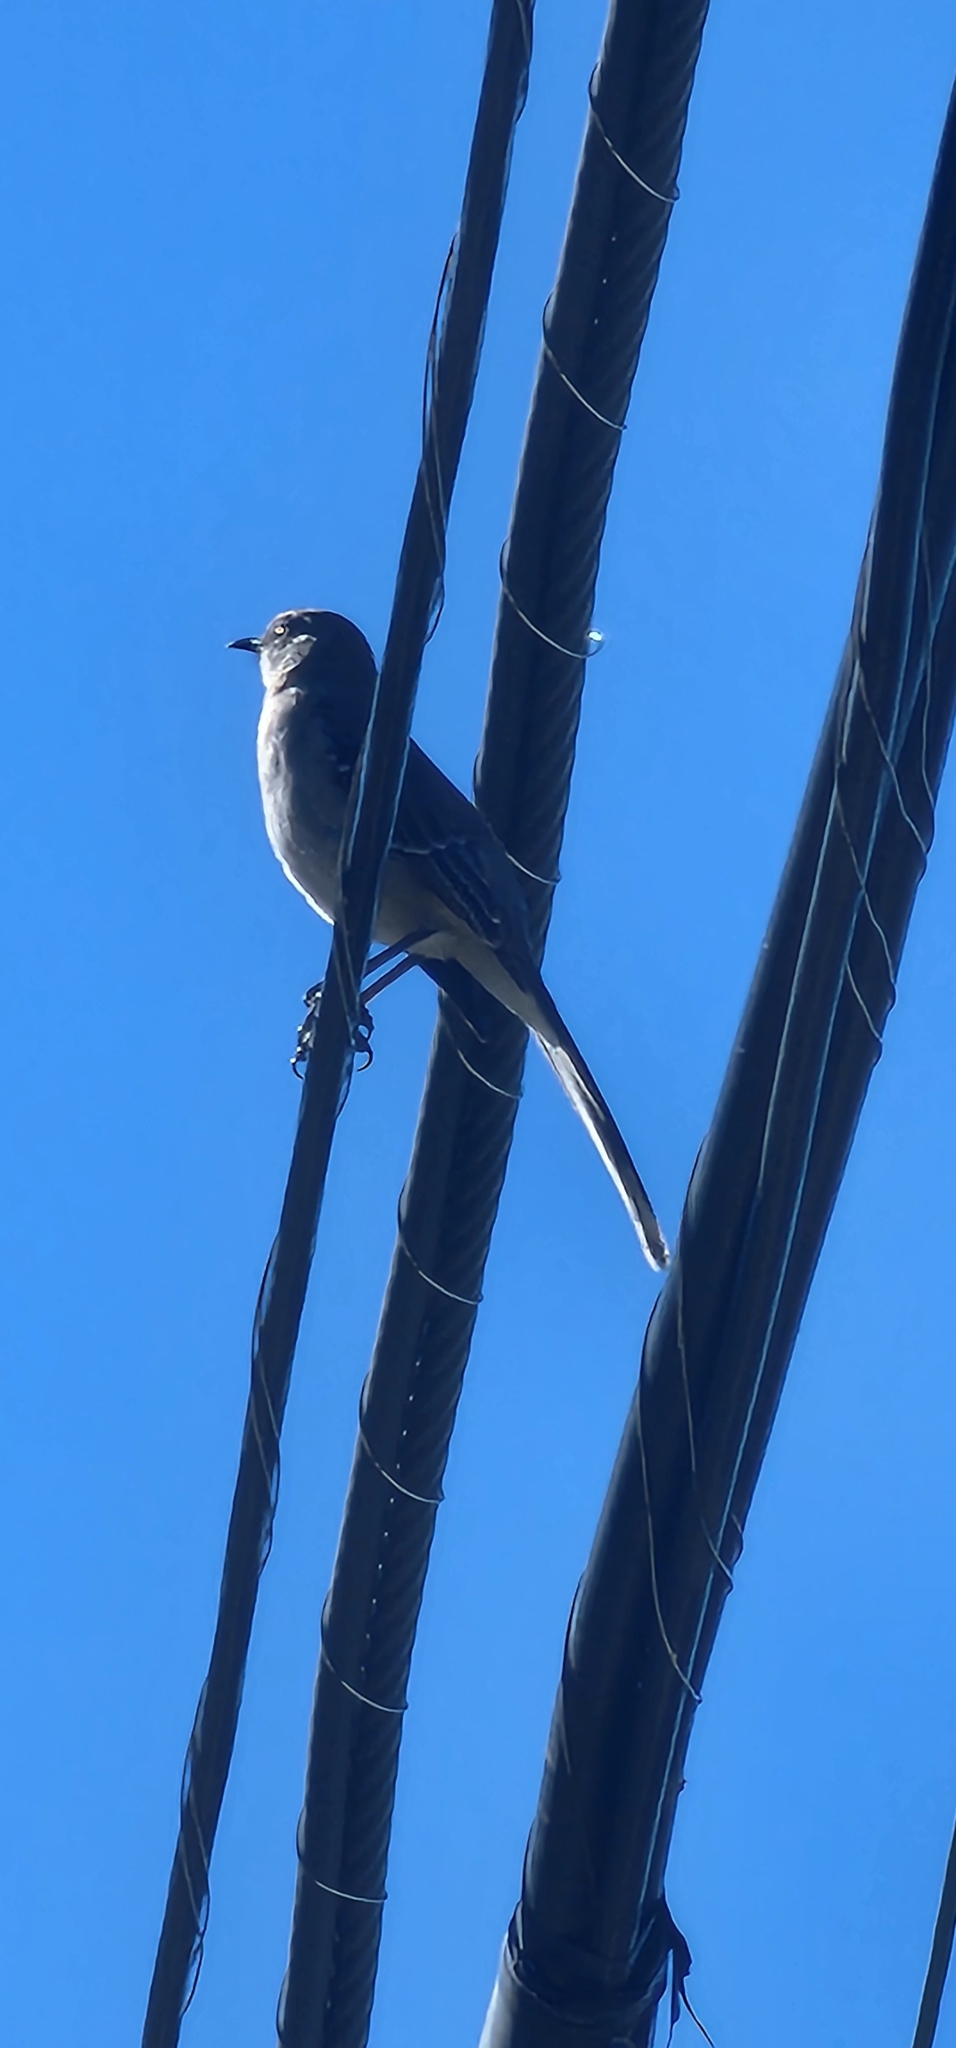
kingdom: Animalia
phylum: Chordata
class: Aves
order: Passeriformes
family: Mimidae
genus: Mimus
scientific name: Mimus polyglottos
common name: Northern mockingbird
